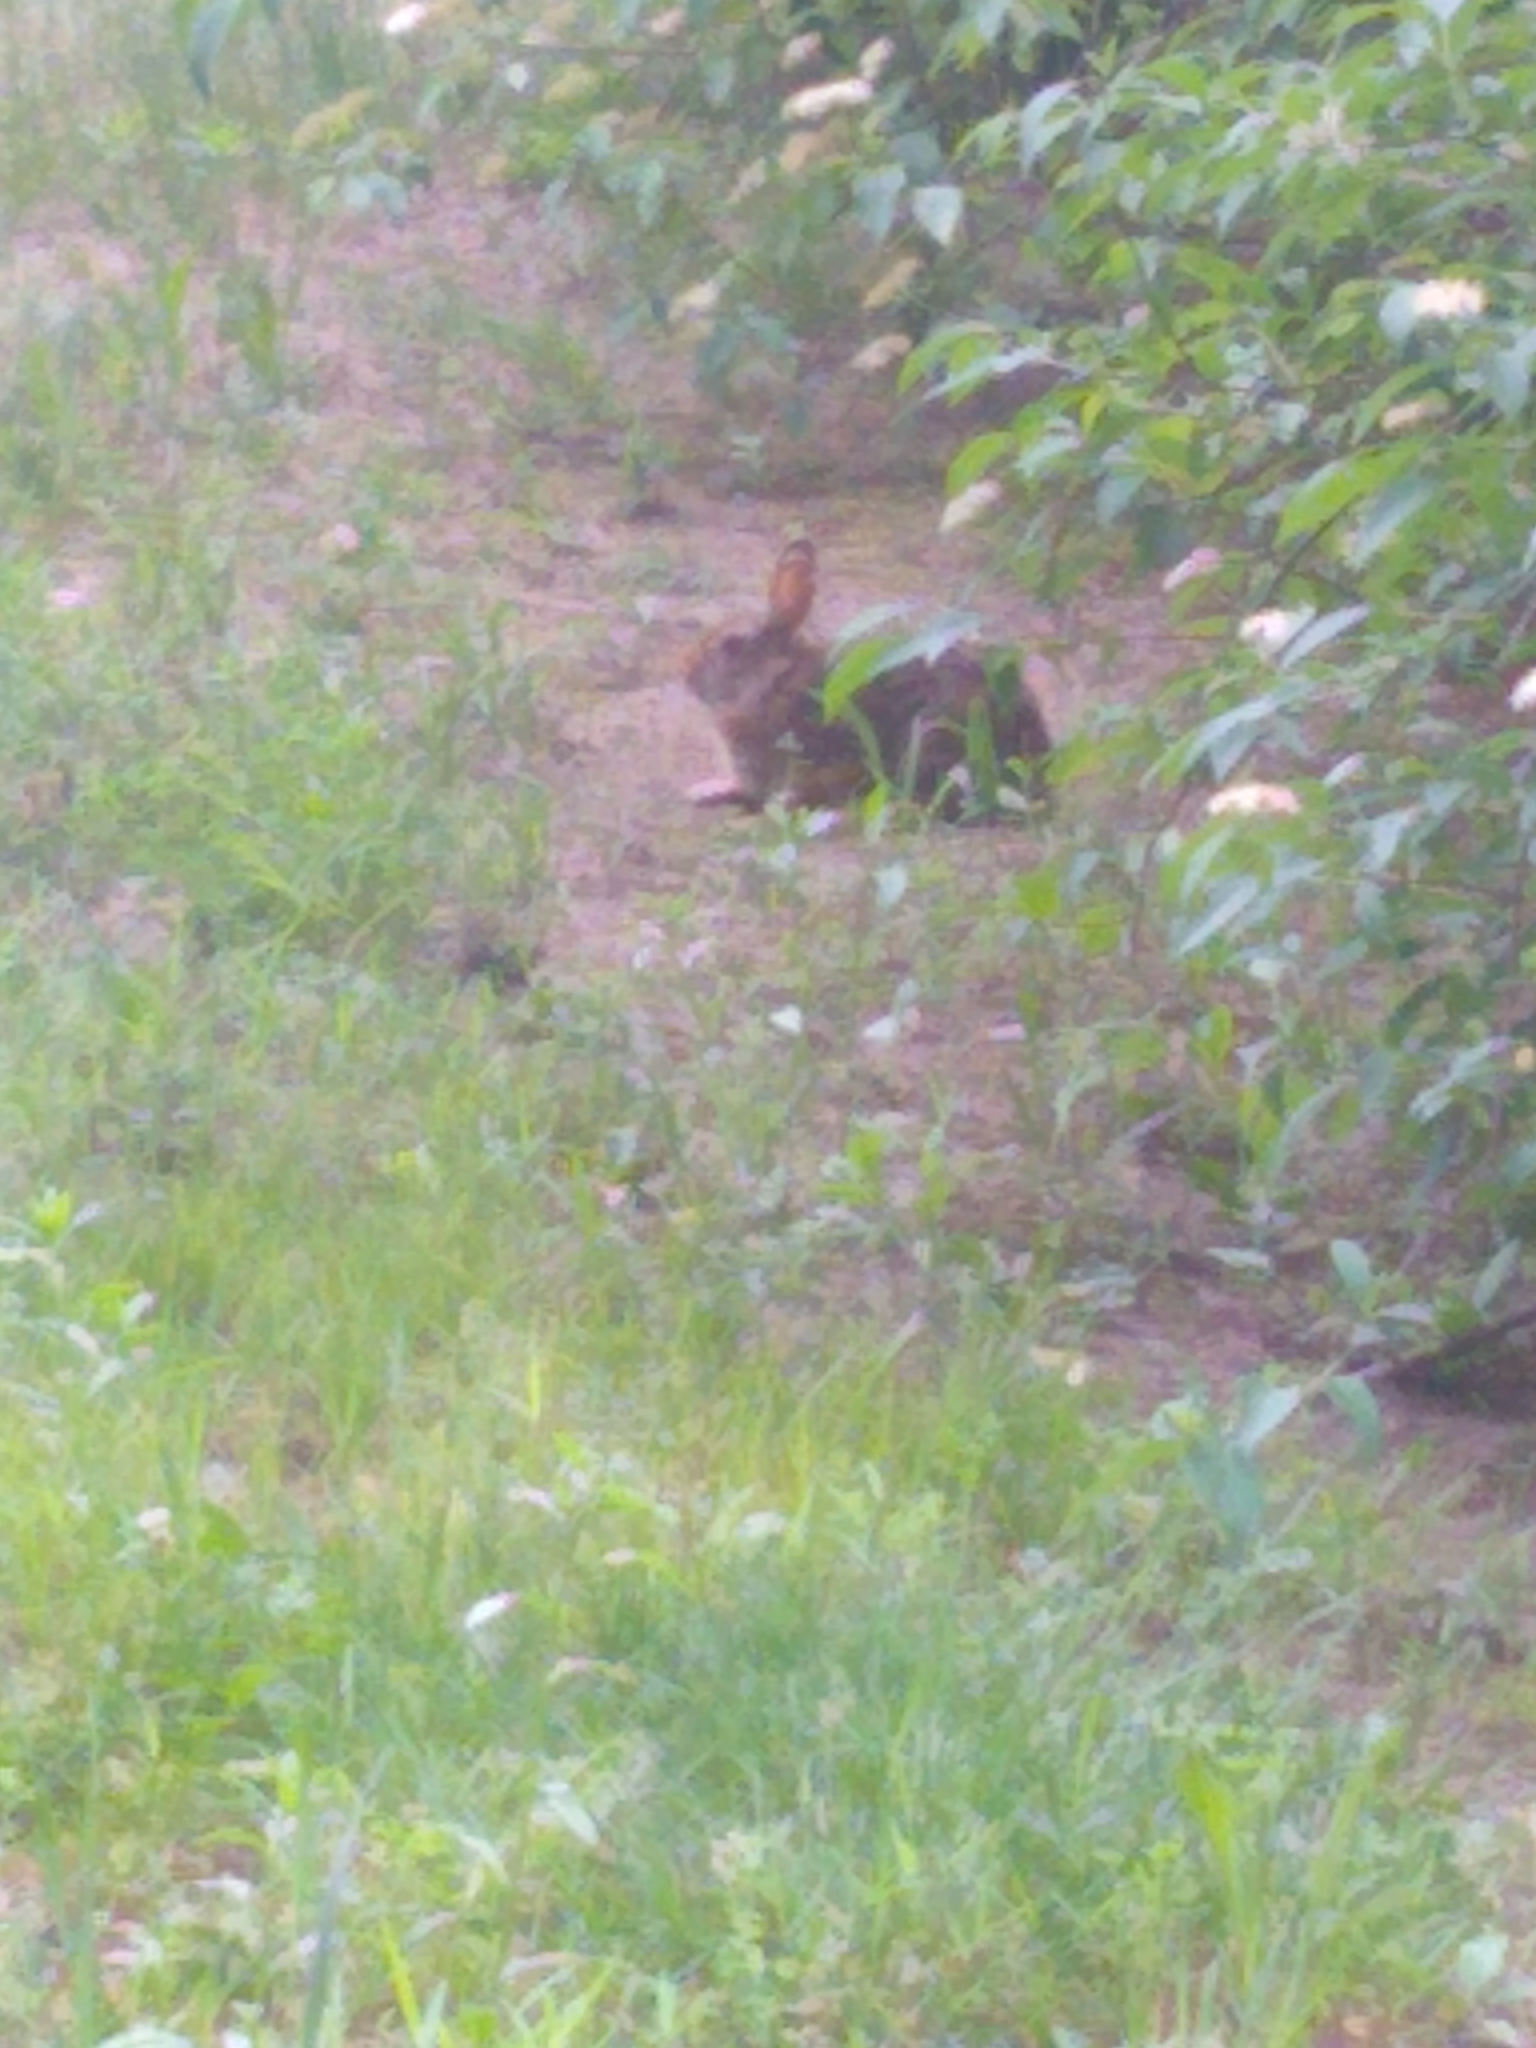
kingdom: Animalia
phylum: Chordata
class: Mammalia
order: Lagomorpha
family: Leporidae
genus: Sylvilagus
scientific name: Sylvilagus floridanus
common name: Eastern cottontail
